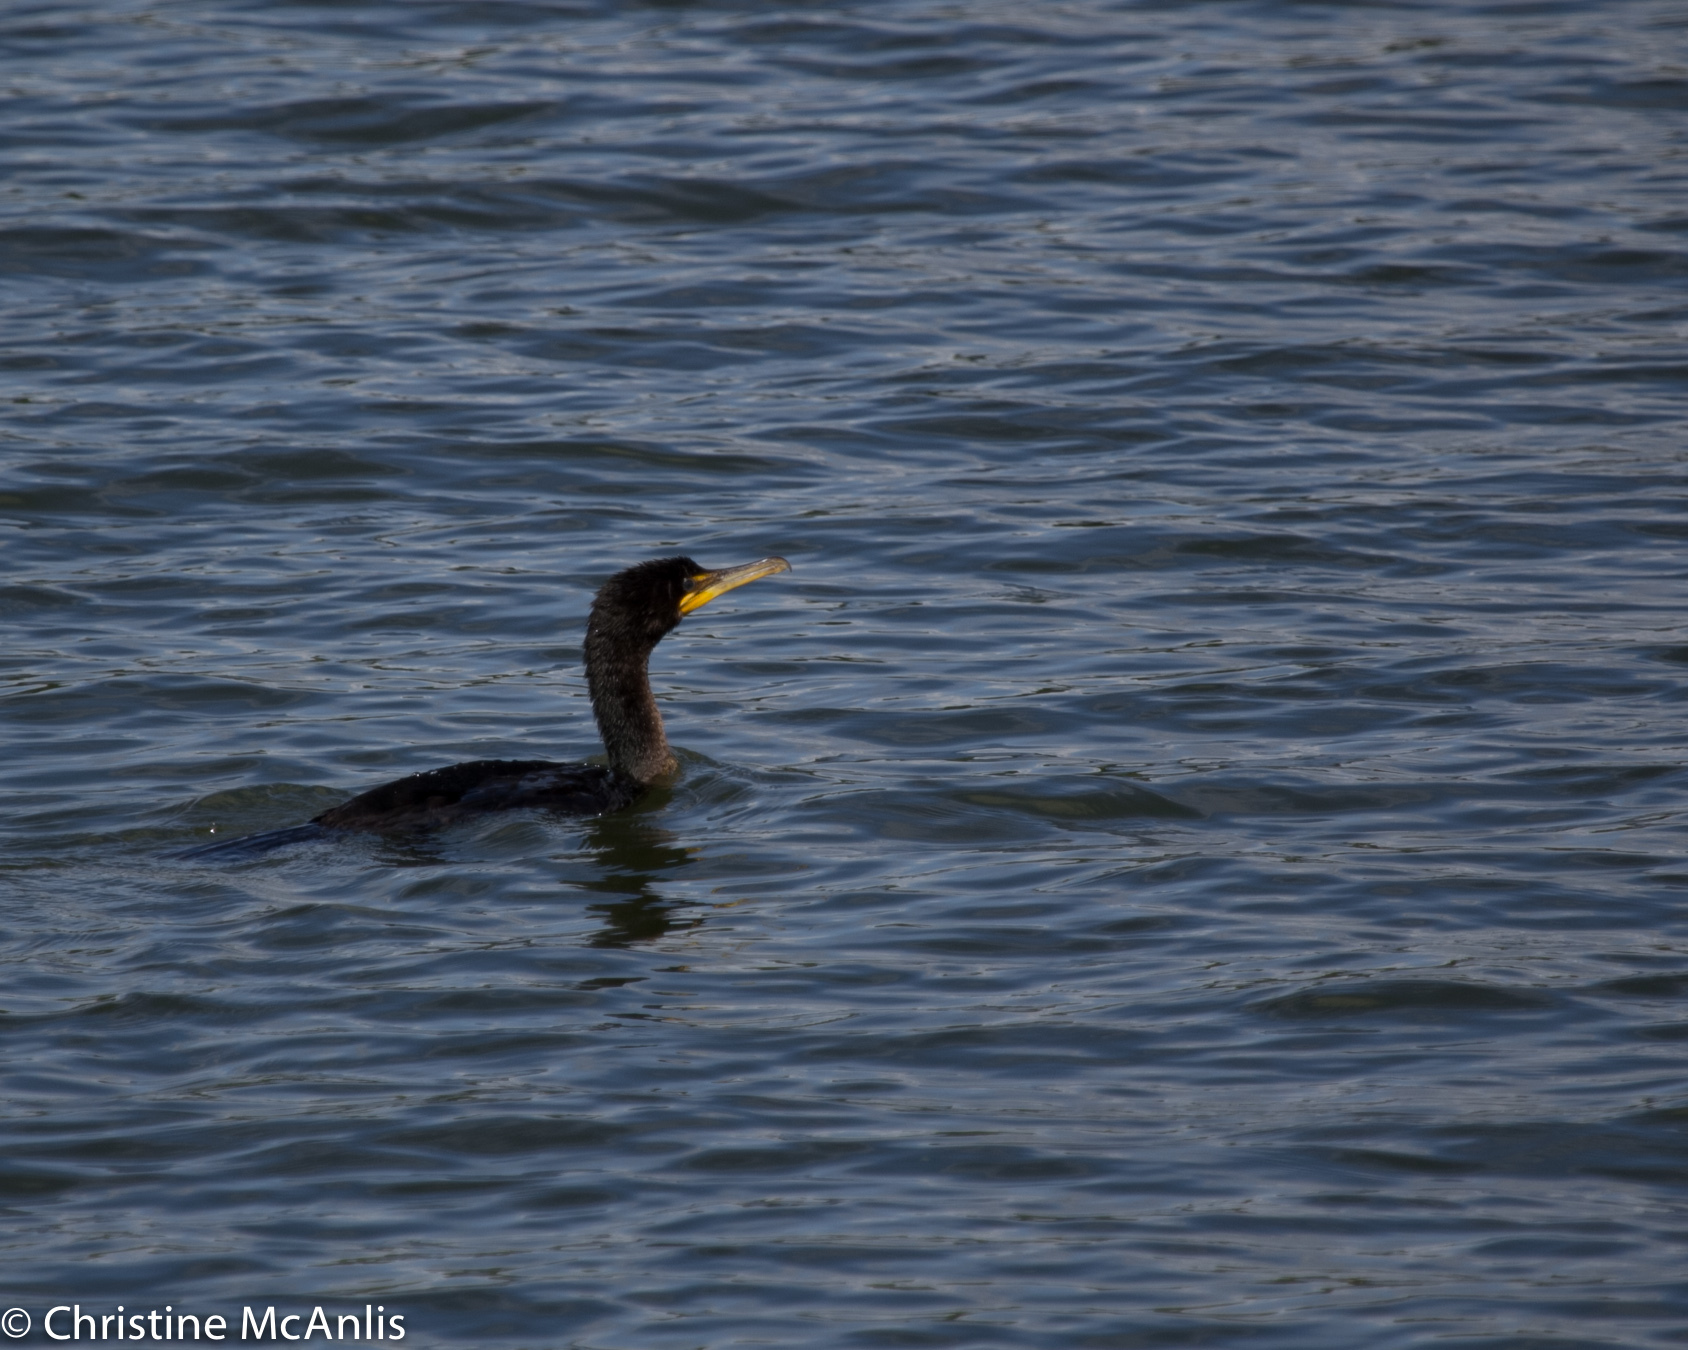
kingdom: Animalia
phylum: Chordata
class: Aves
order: Suliformes
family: Phalacrocoracidae
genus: Phalacrocorax
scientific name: Phalacrocorax auritus
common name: Double-crested cormorant
